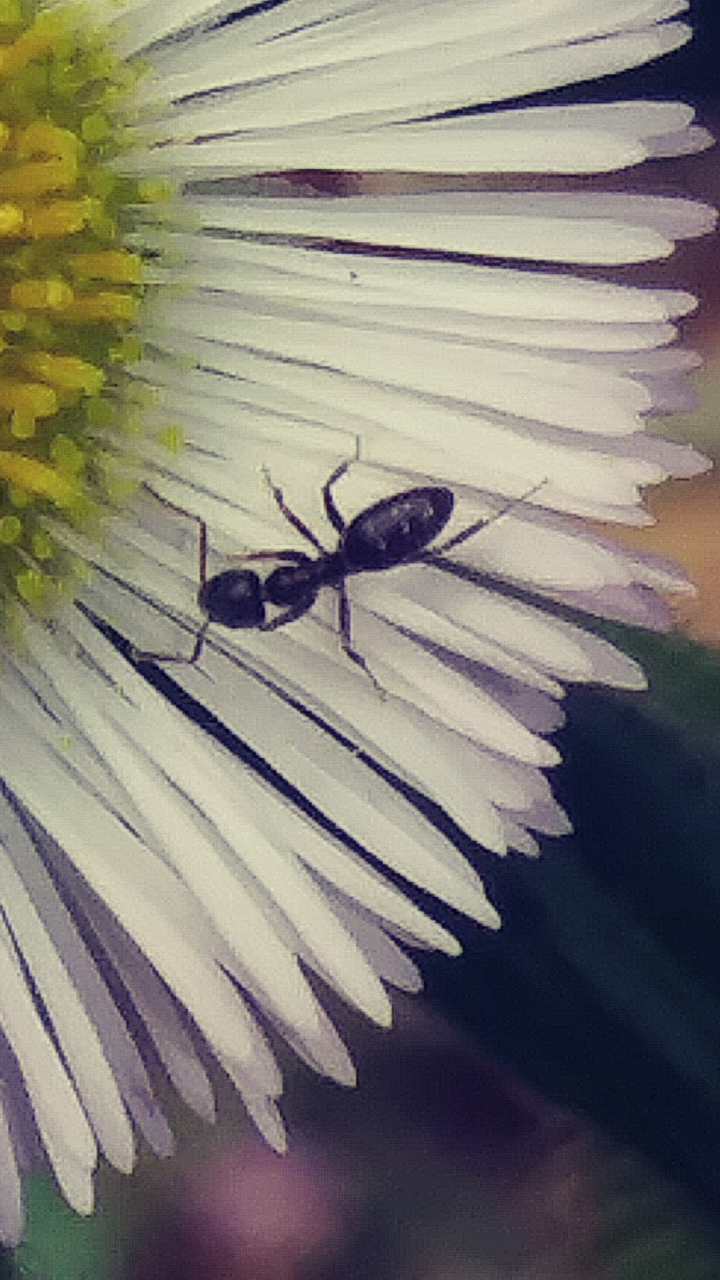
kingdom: Animalia
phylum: Arthropoda
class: Insecta
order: Hymenoptera
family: Formicidae
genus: Tapinoma
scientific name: Tapinoma sessile
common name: Odorous house ant
